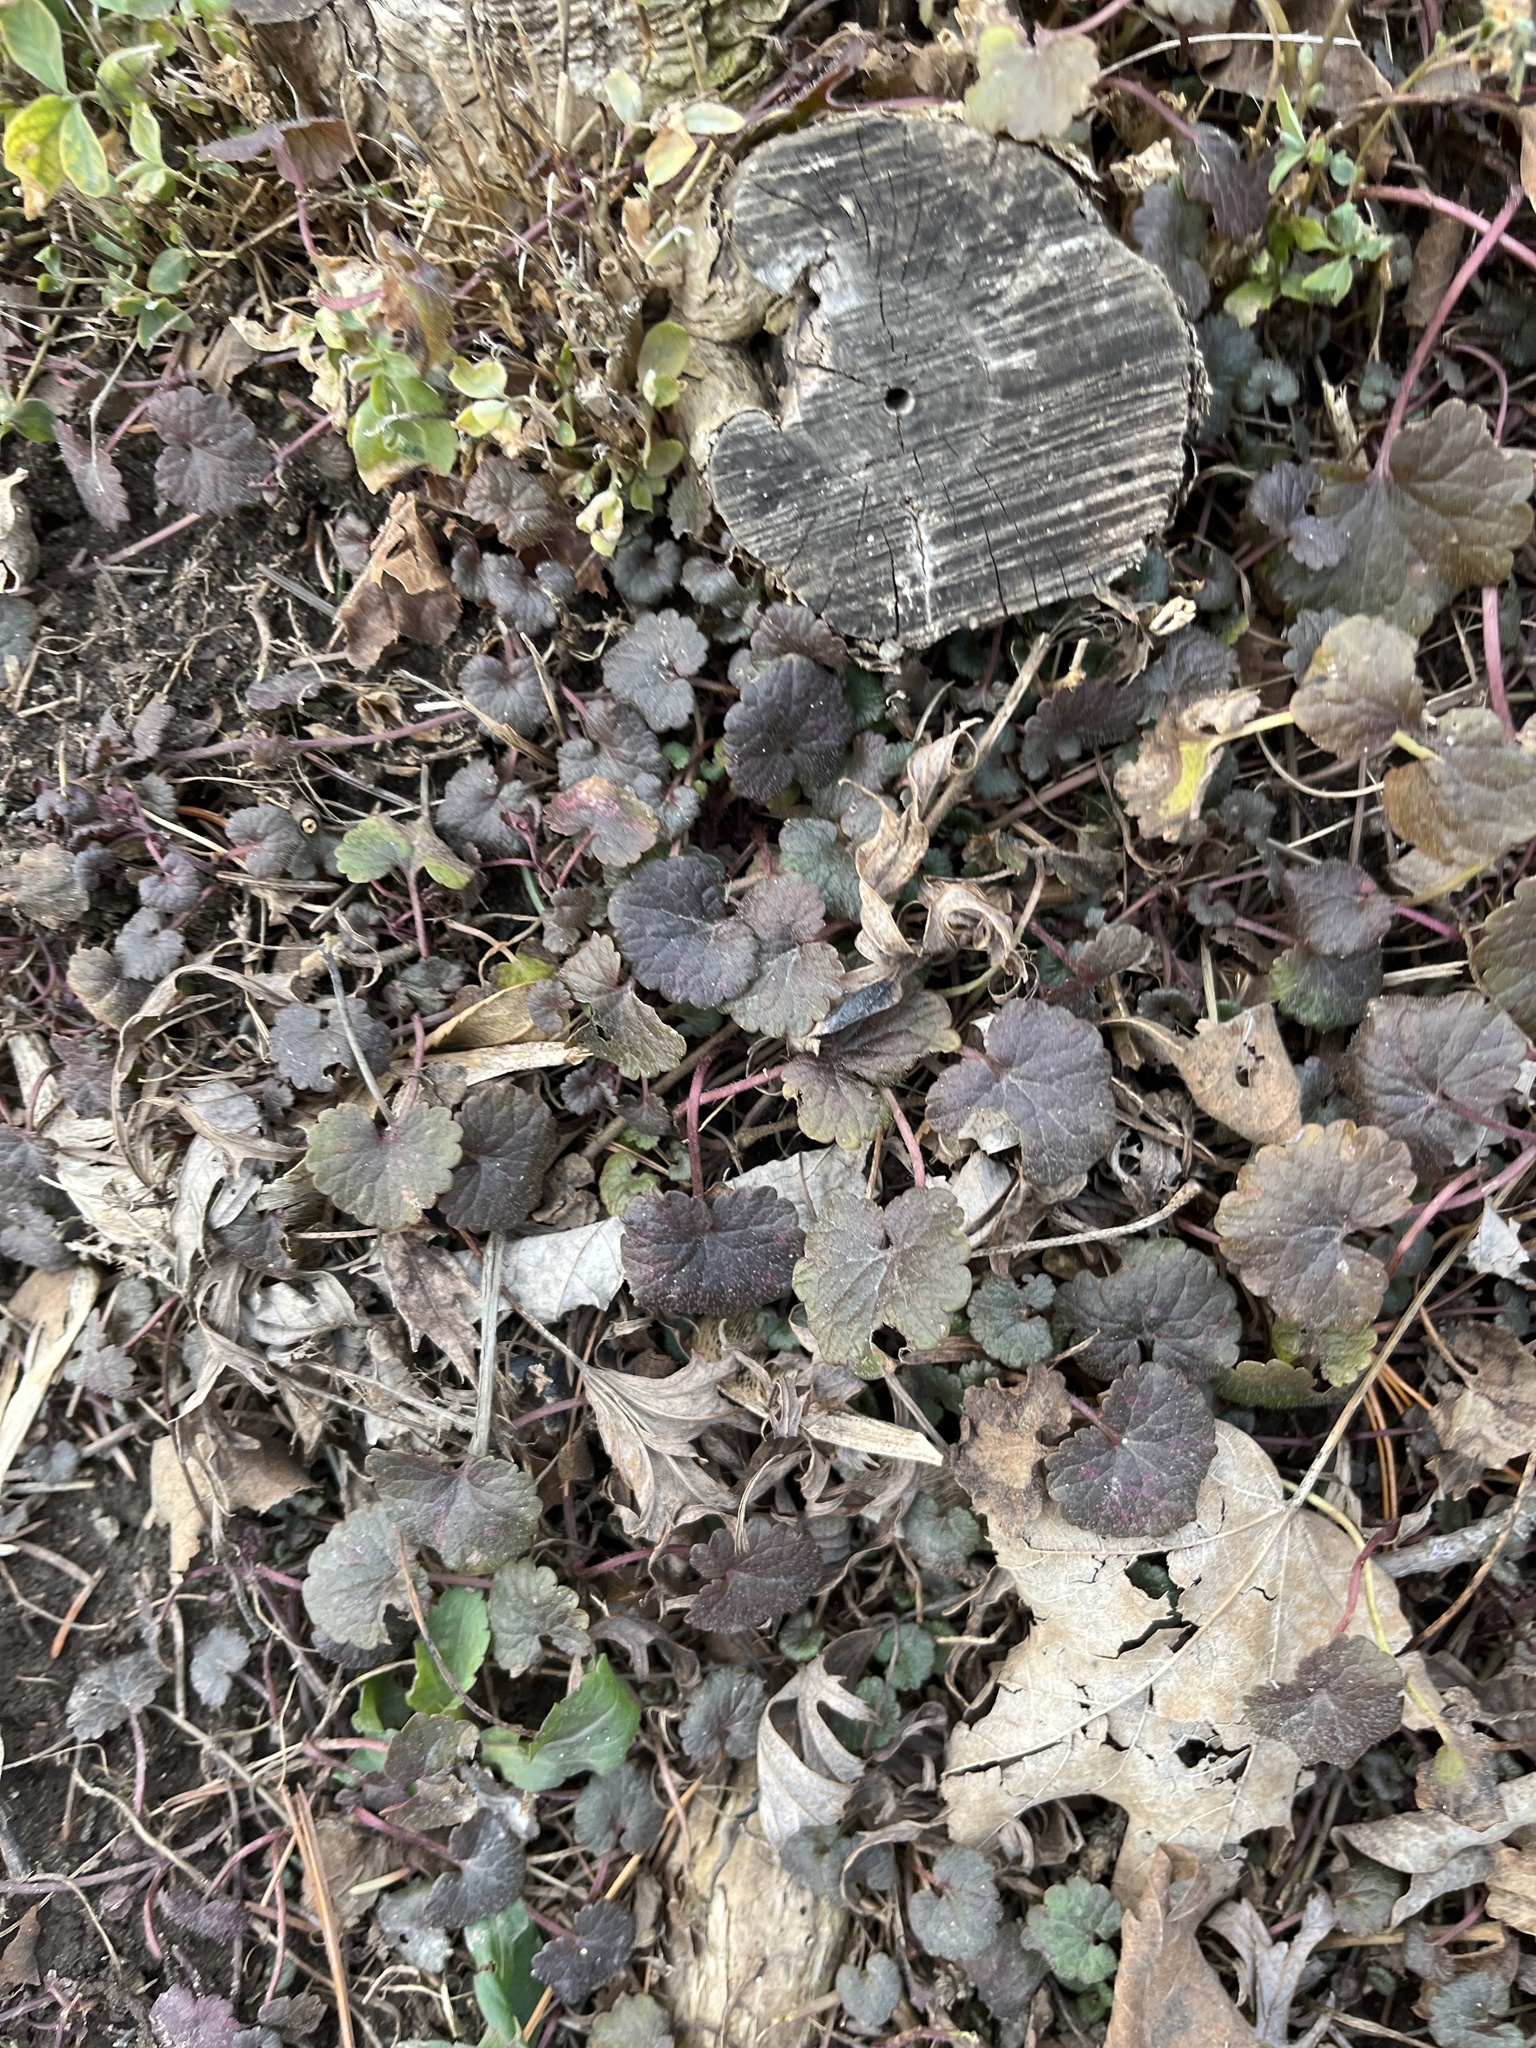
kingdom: Plantae
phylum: Tracheophyta
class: Magnoliopsida
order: Lamiales
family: Lamiaceae
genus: Glechoma
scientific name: Glechoma hederacea
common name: Ground ivy
